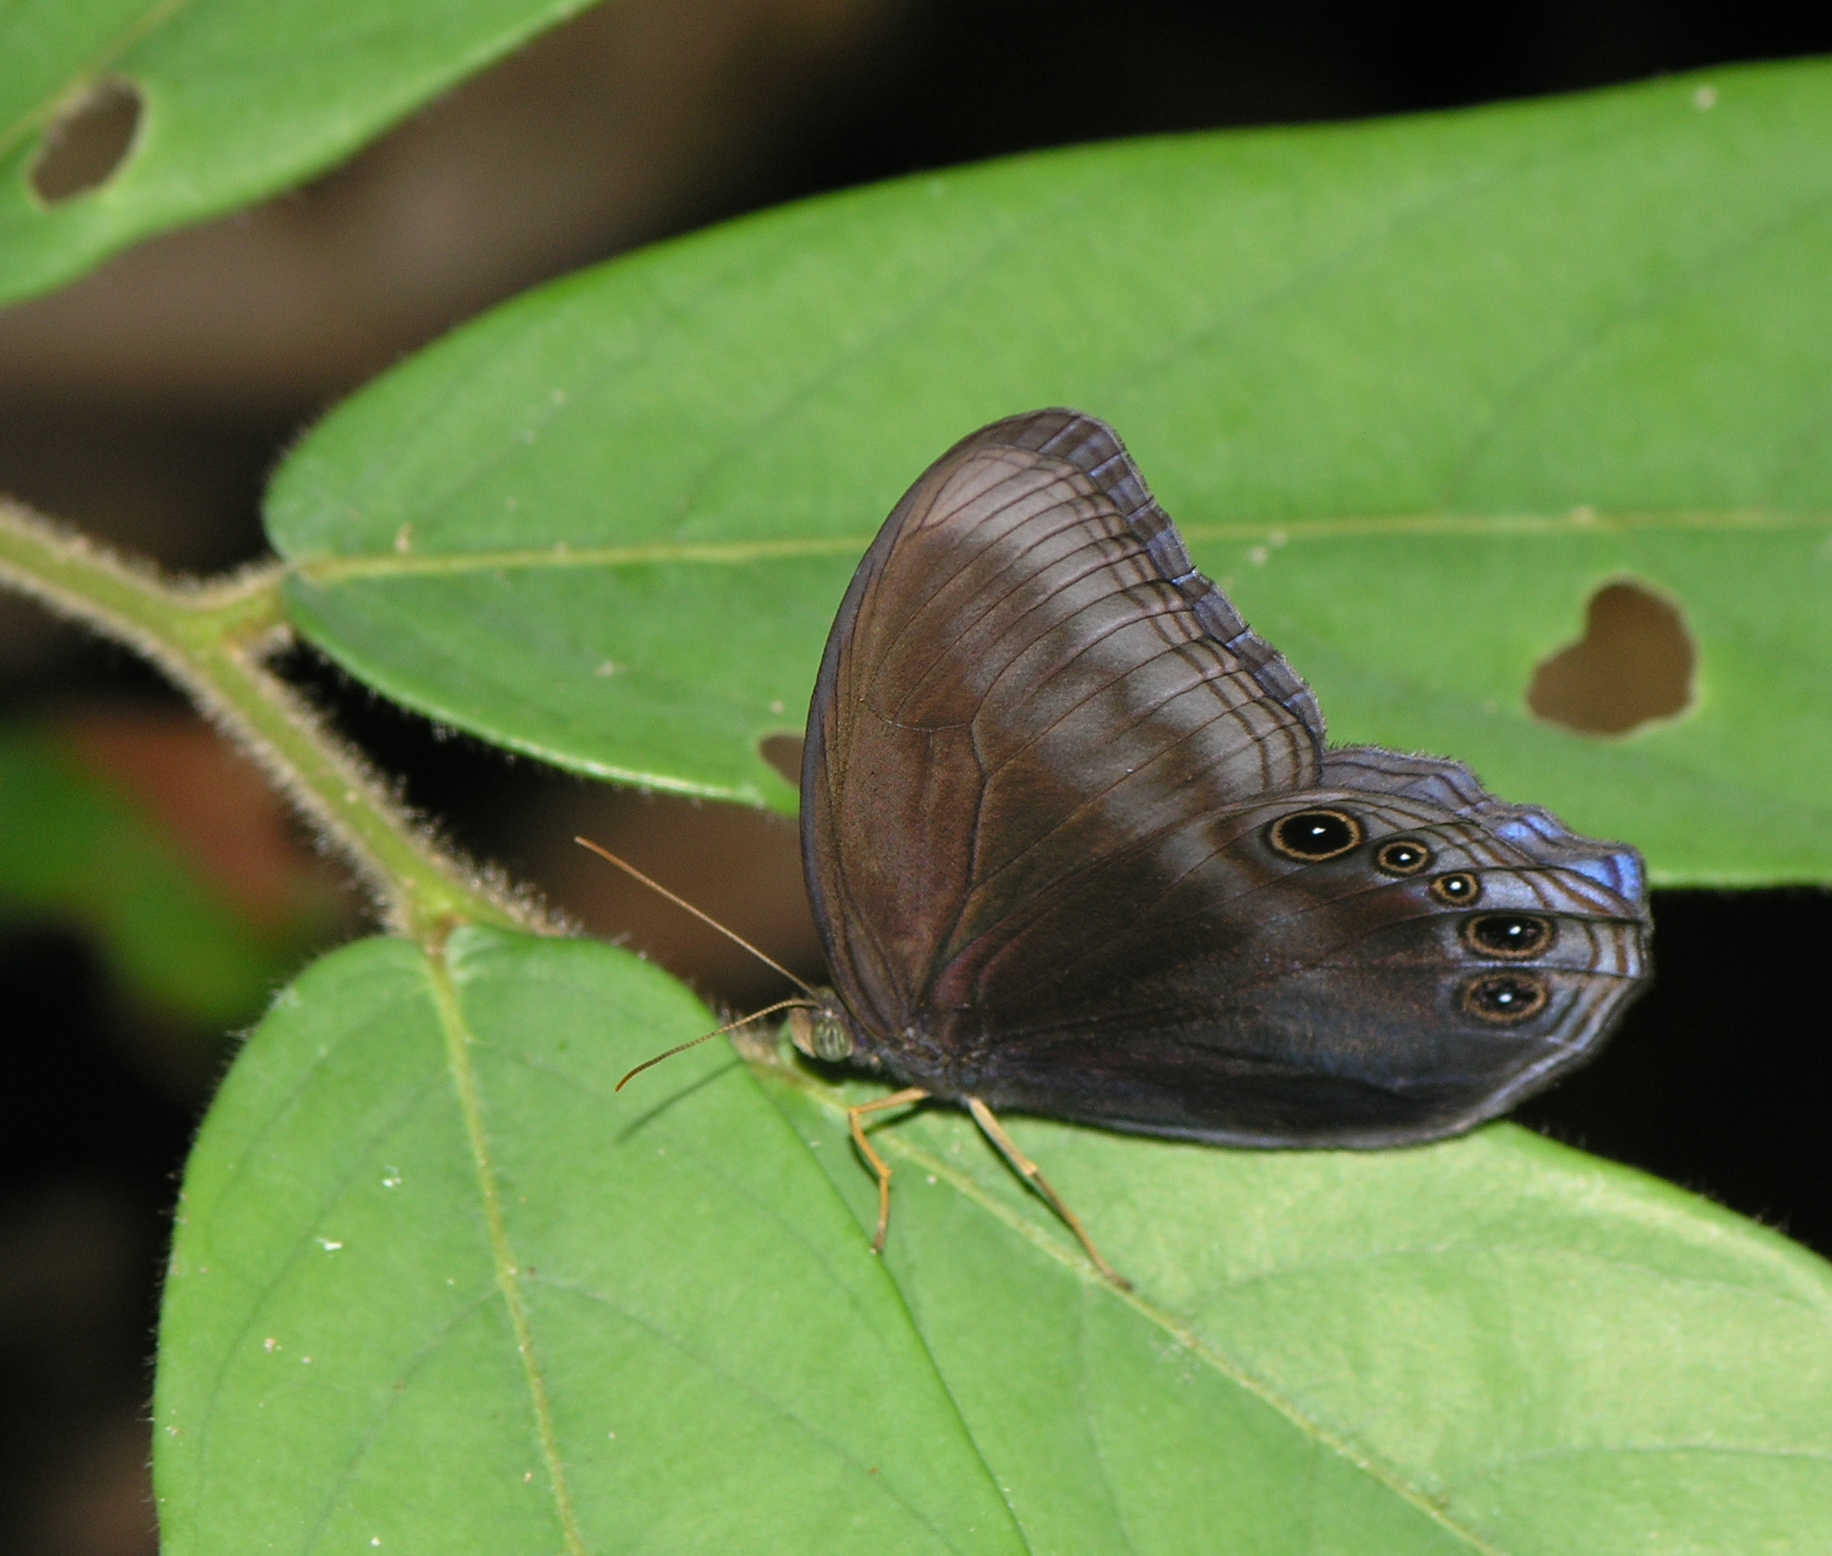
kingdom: Animalia
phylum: Arthropoda
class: Insecta
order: Lepidoptera
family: Nymphalidae
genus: Coelites
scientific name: Coelites nothis
